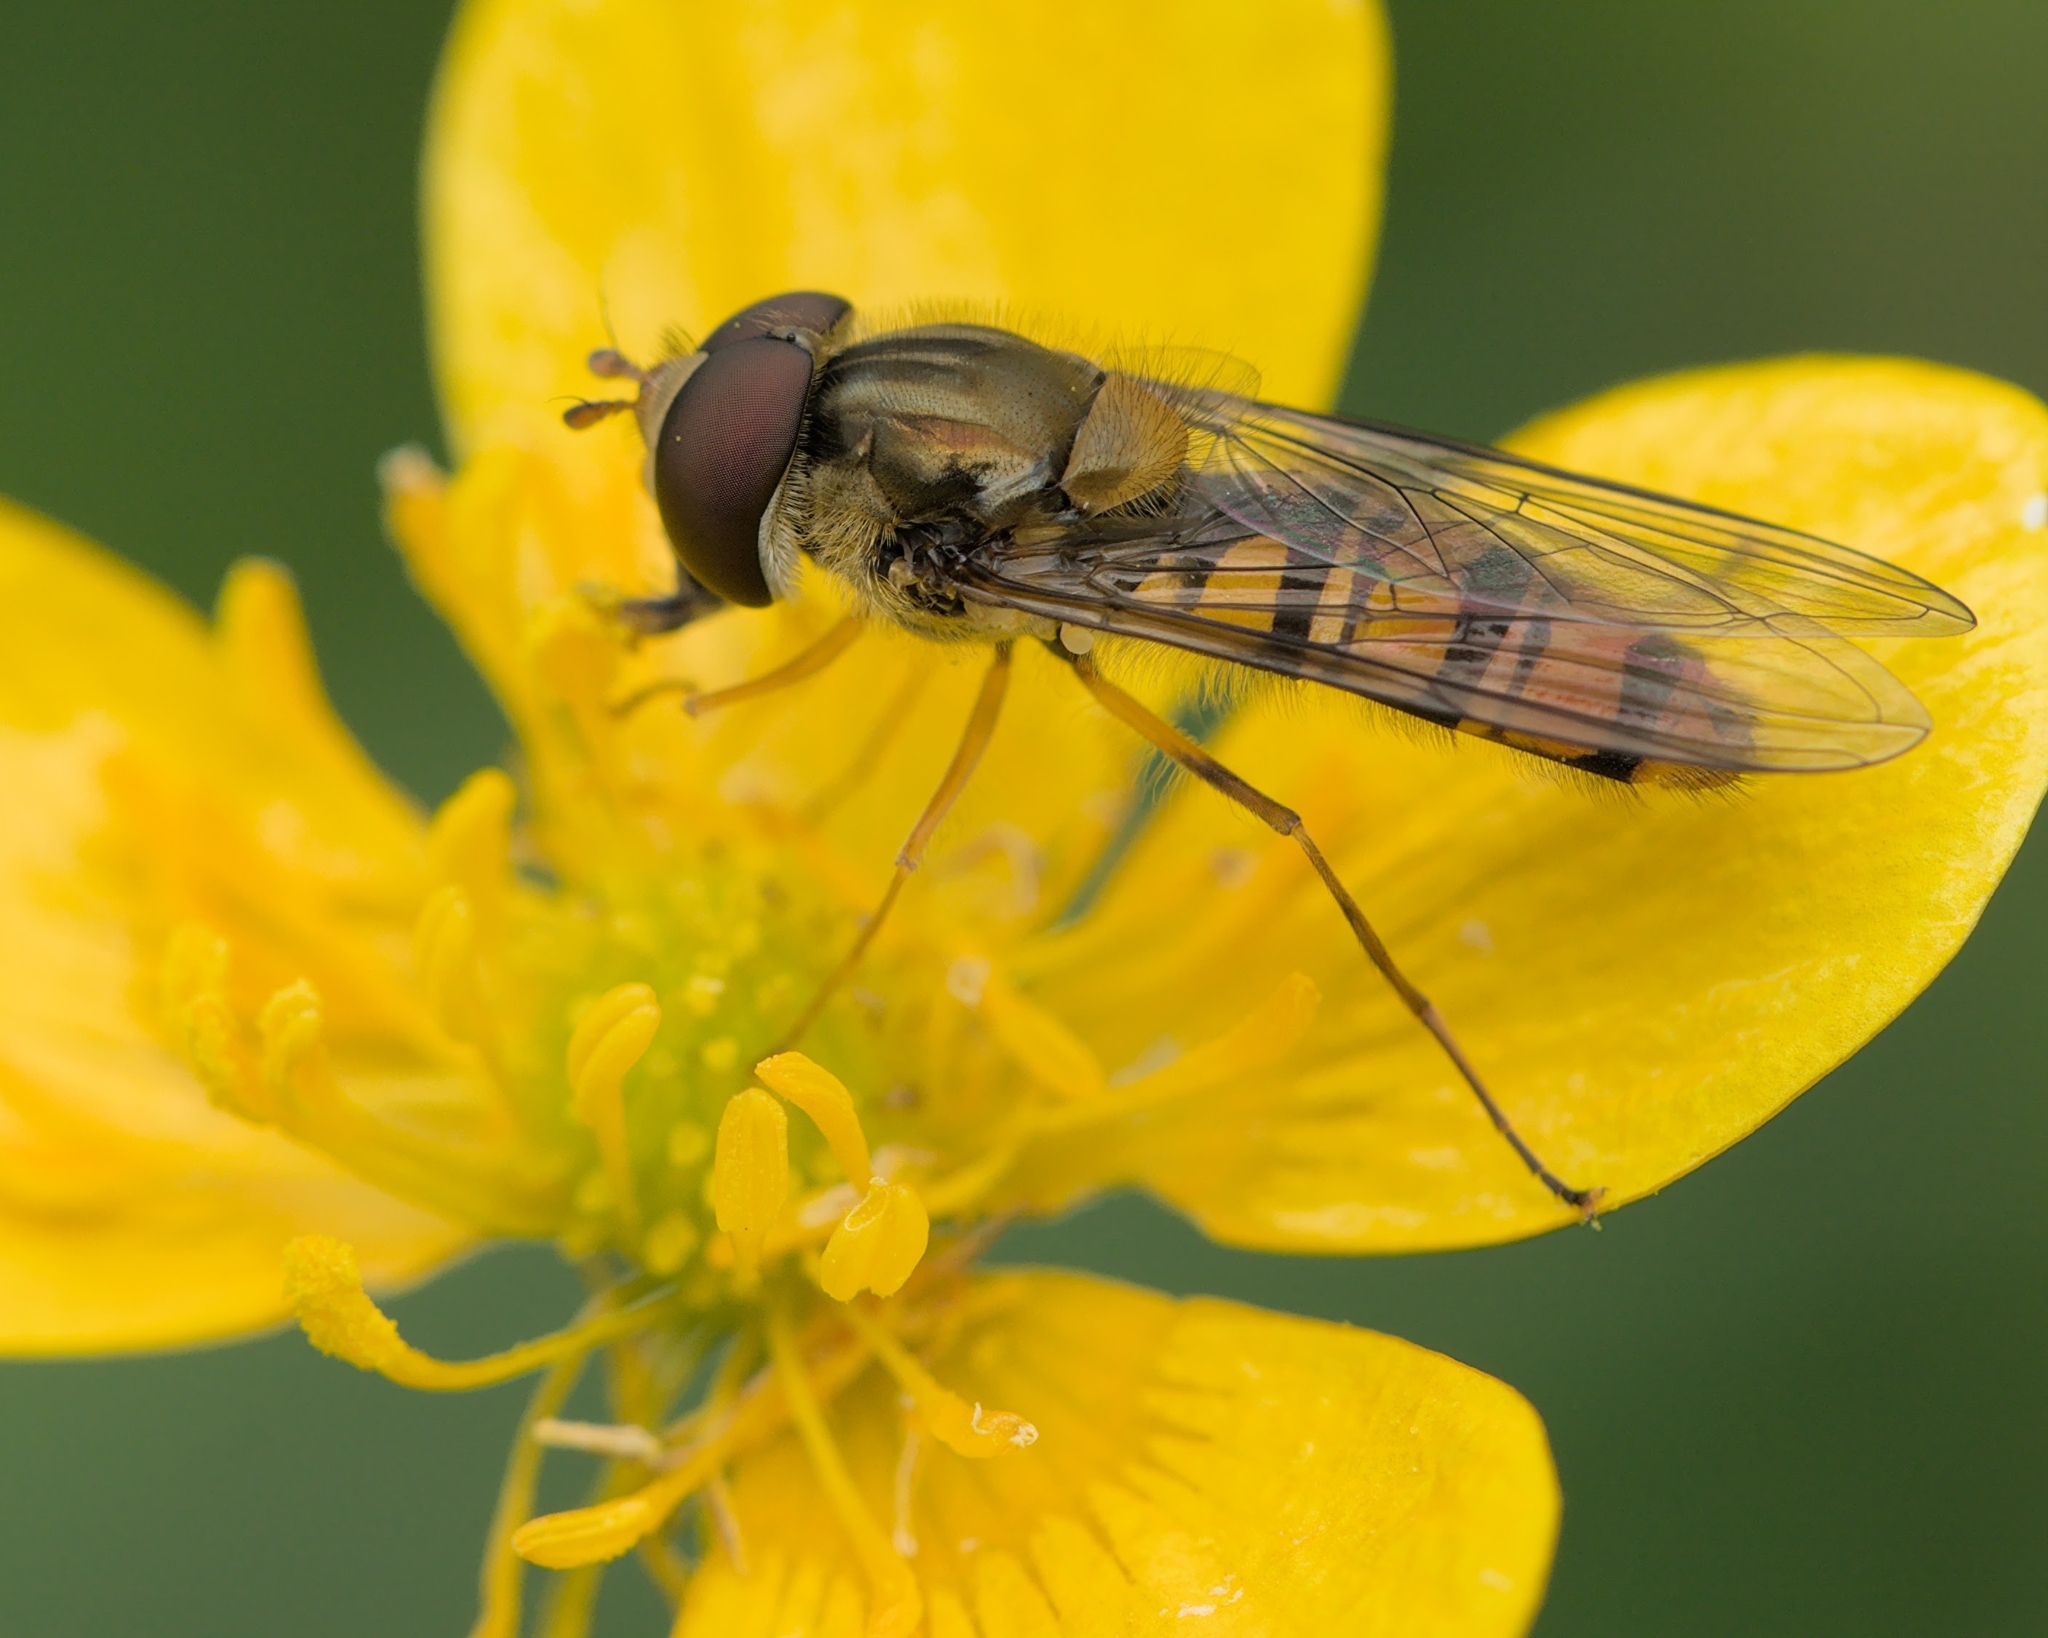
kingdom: Animalia
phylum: Arthropoda
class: Insecta
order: Diptera
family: Syrphidae
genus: Episyrphus
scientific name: Episyrphus balteatus
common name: Marmalade hoverfly
